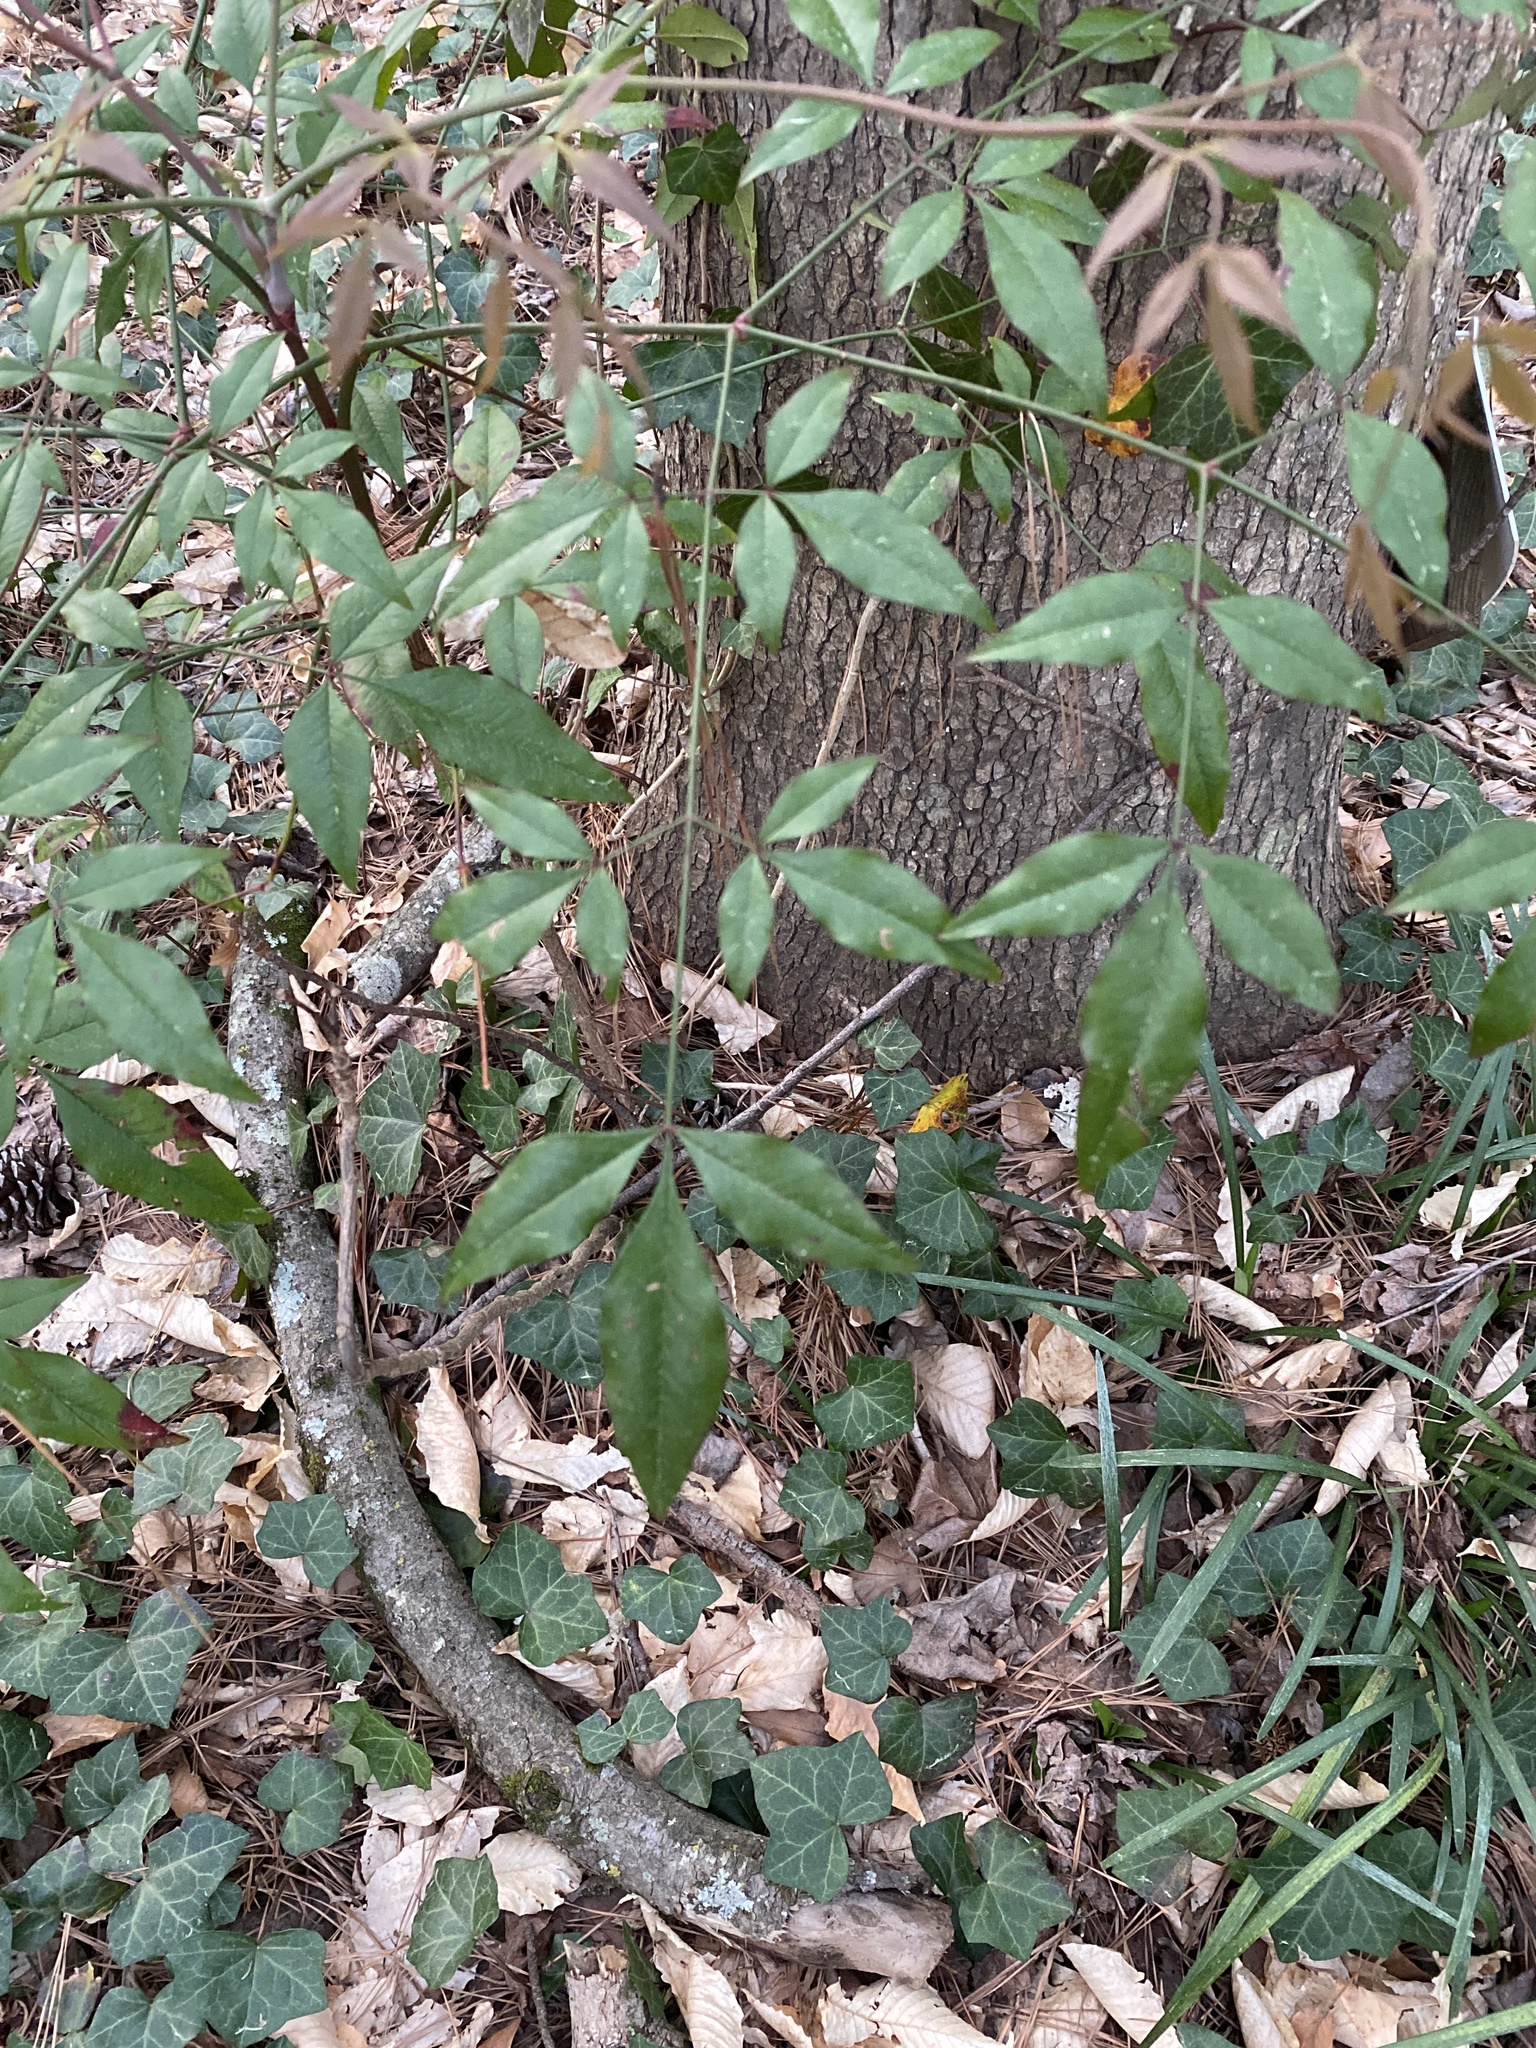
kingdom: Plantae
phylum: Tracheophyta
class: Magnoliopsida
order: Ranunculales
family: Berberidaceae
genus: Nandina
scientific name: Nandina domestica
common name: Sacred bamboo
